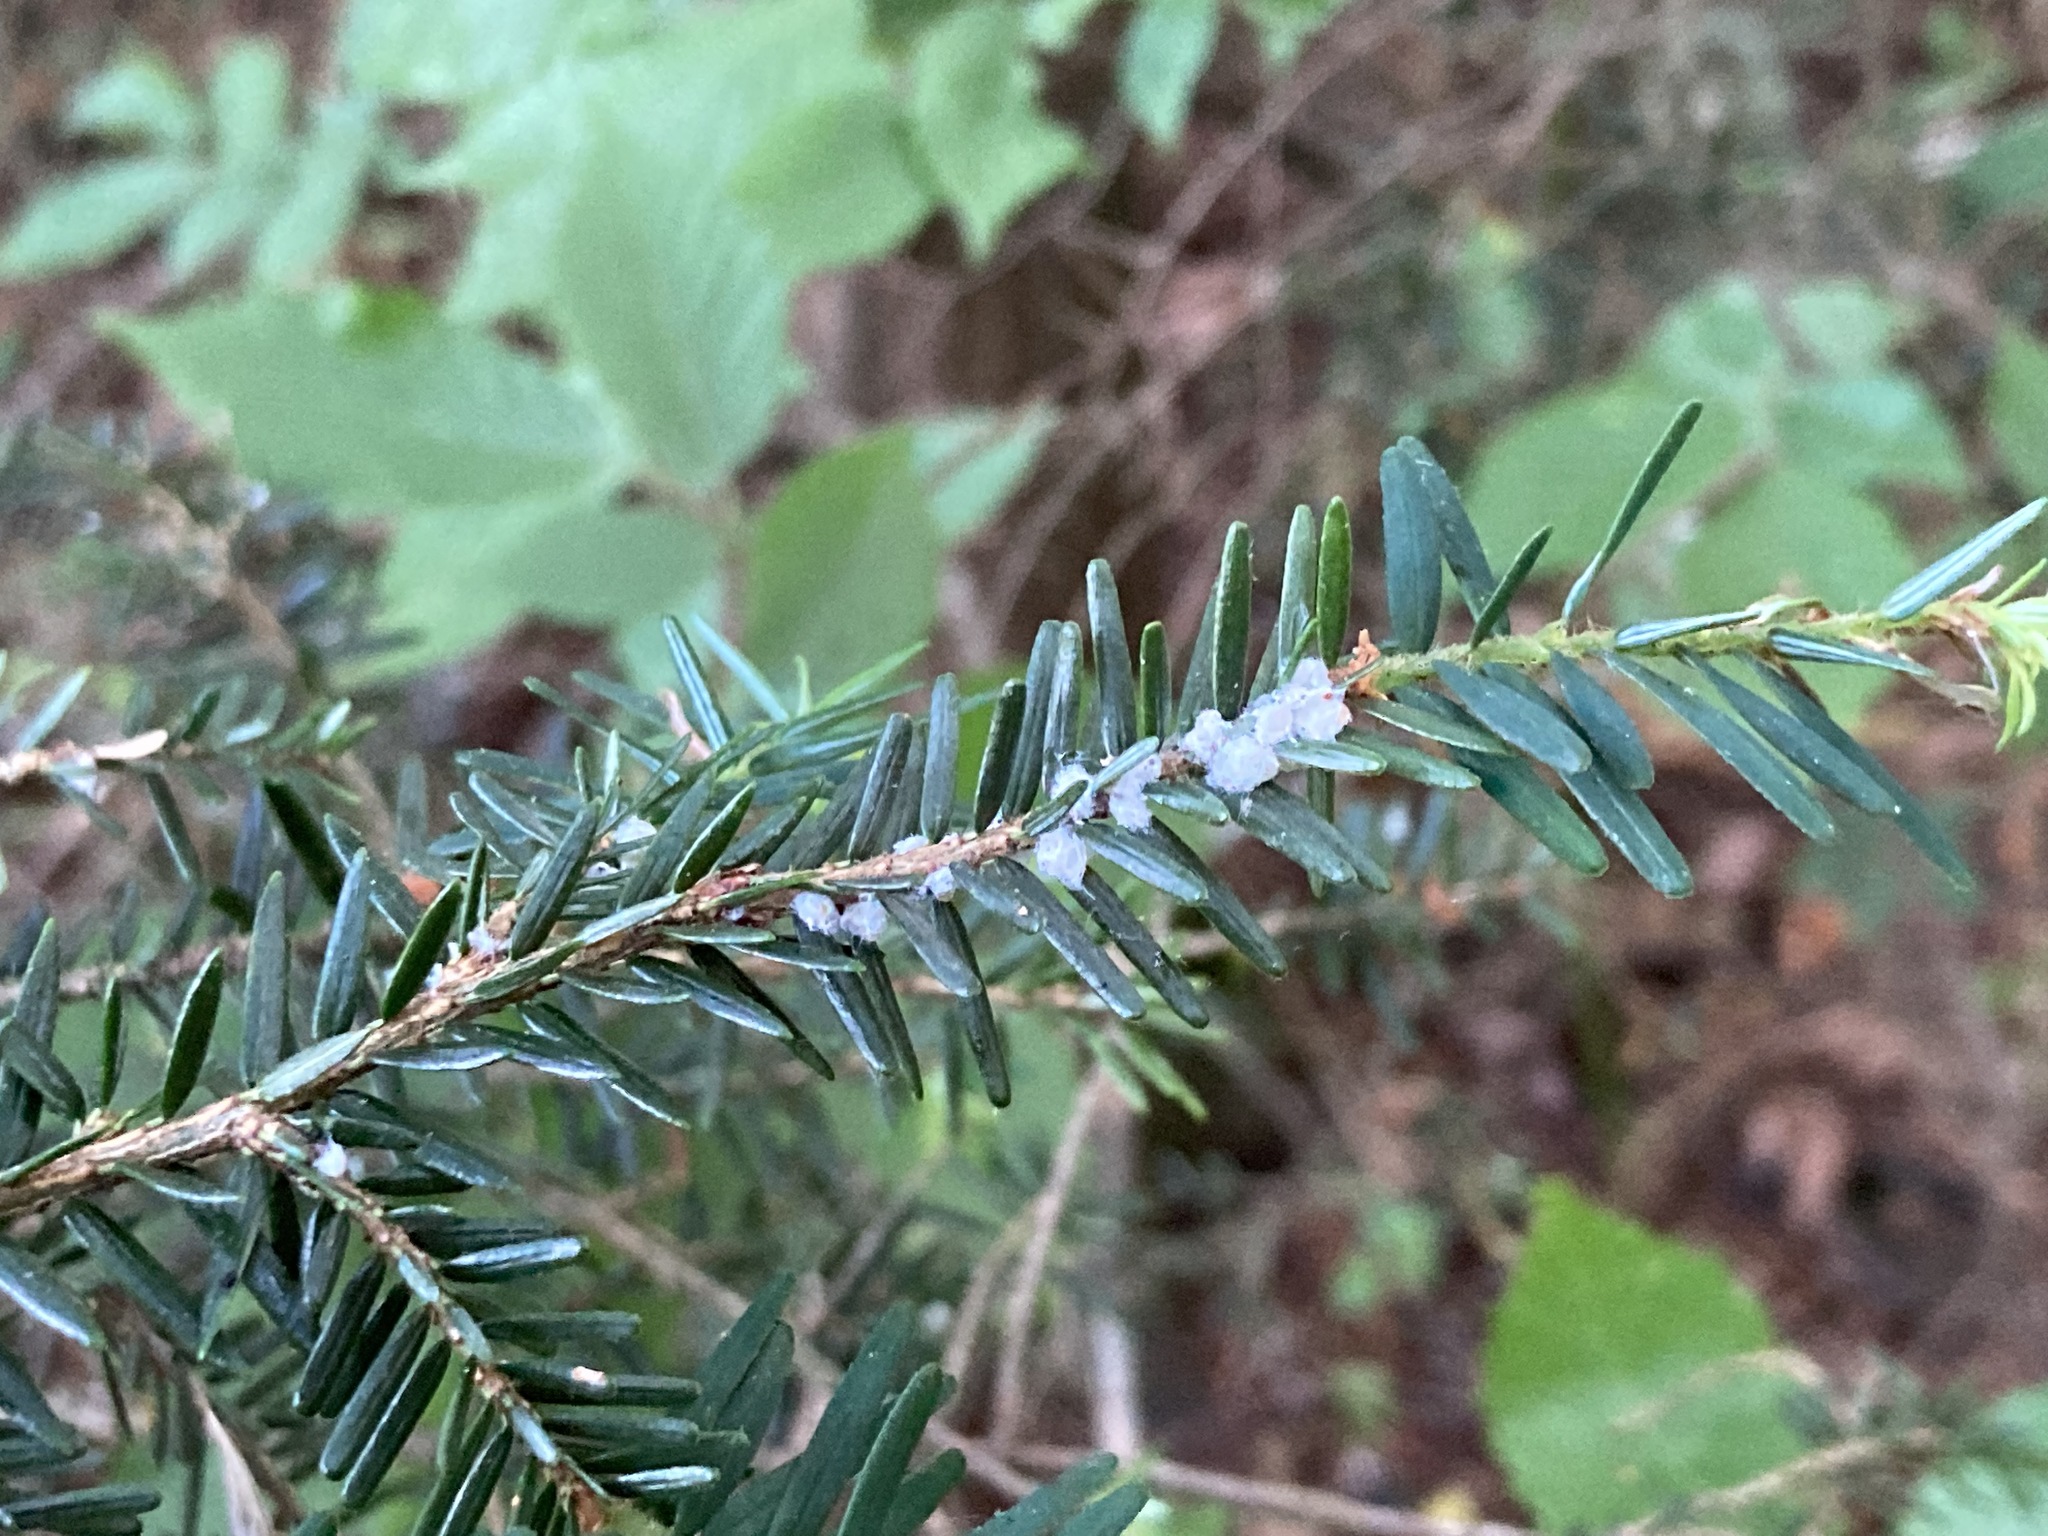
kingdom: Animalia
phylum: Arthropoda
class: Insecta
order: Hemiptera
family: Adelgidae
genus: Adelges
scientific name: Adelges tsugae
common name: Hemlock woolly adelgid
